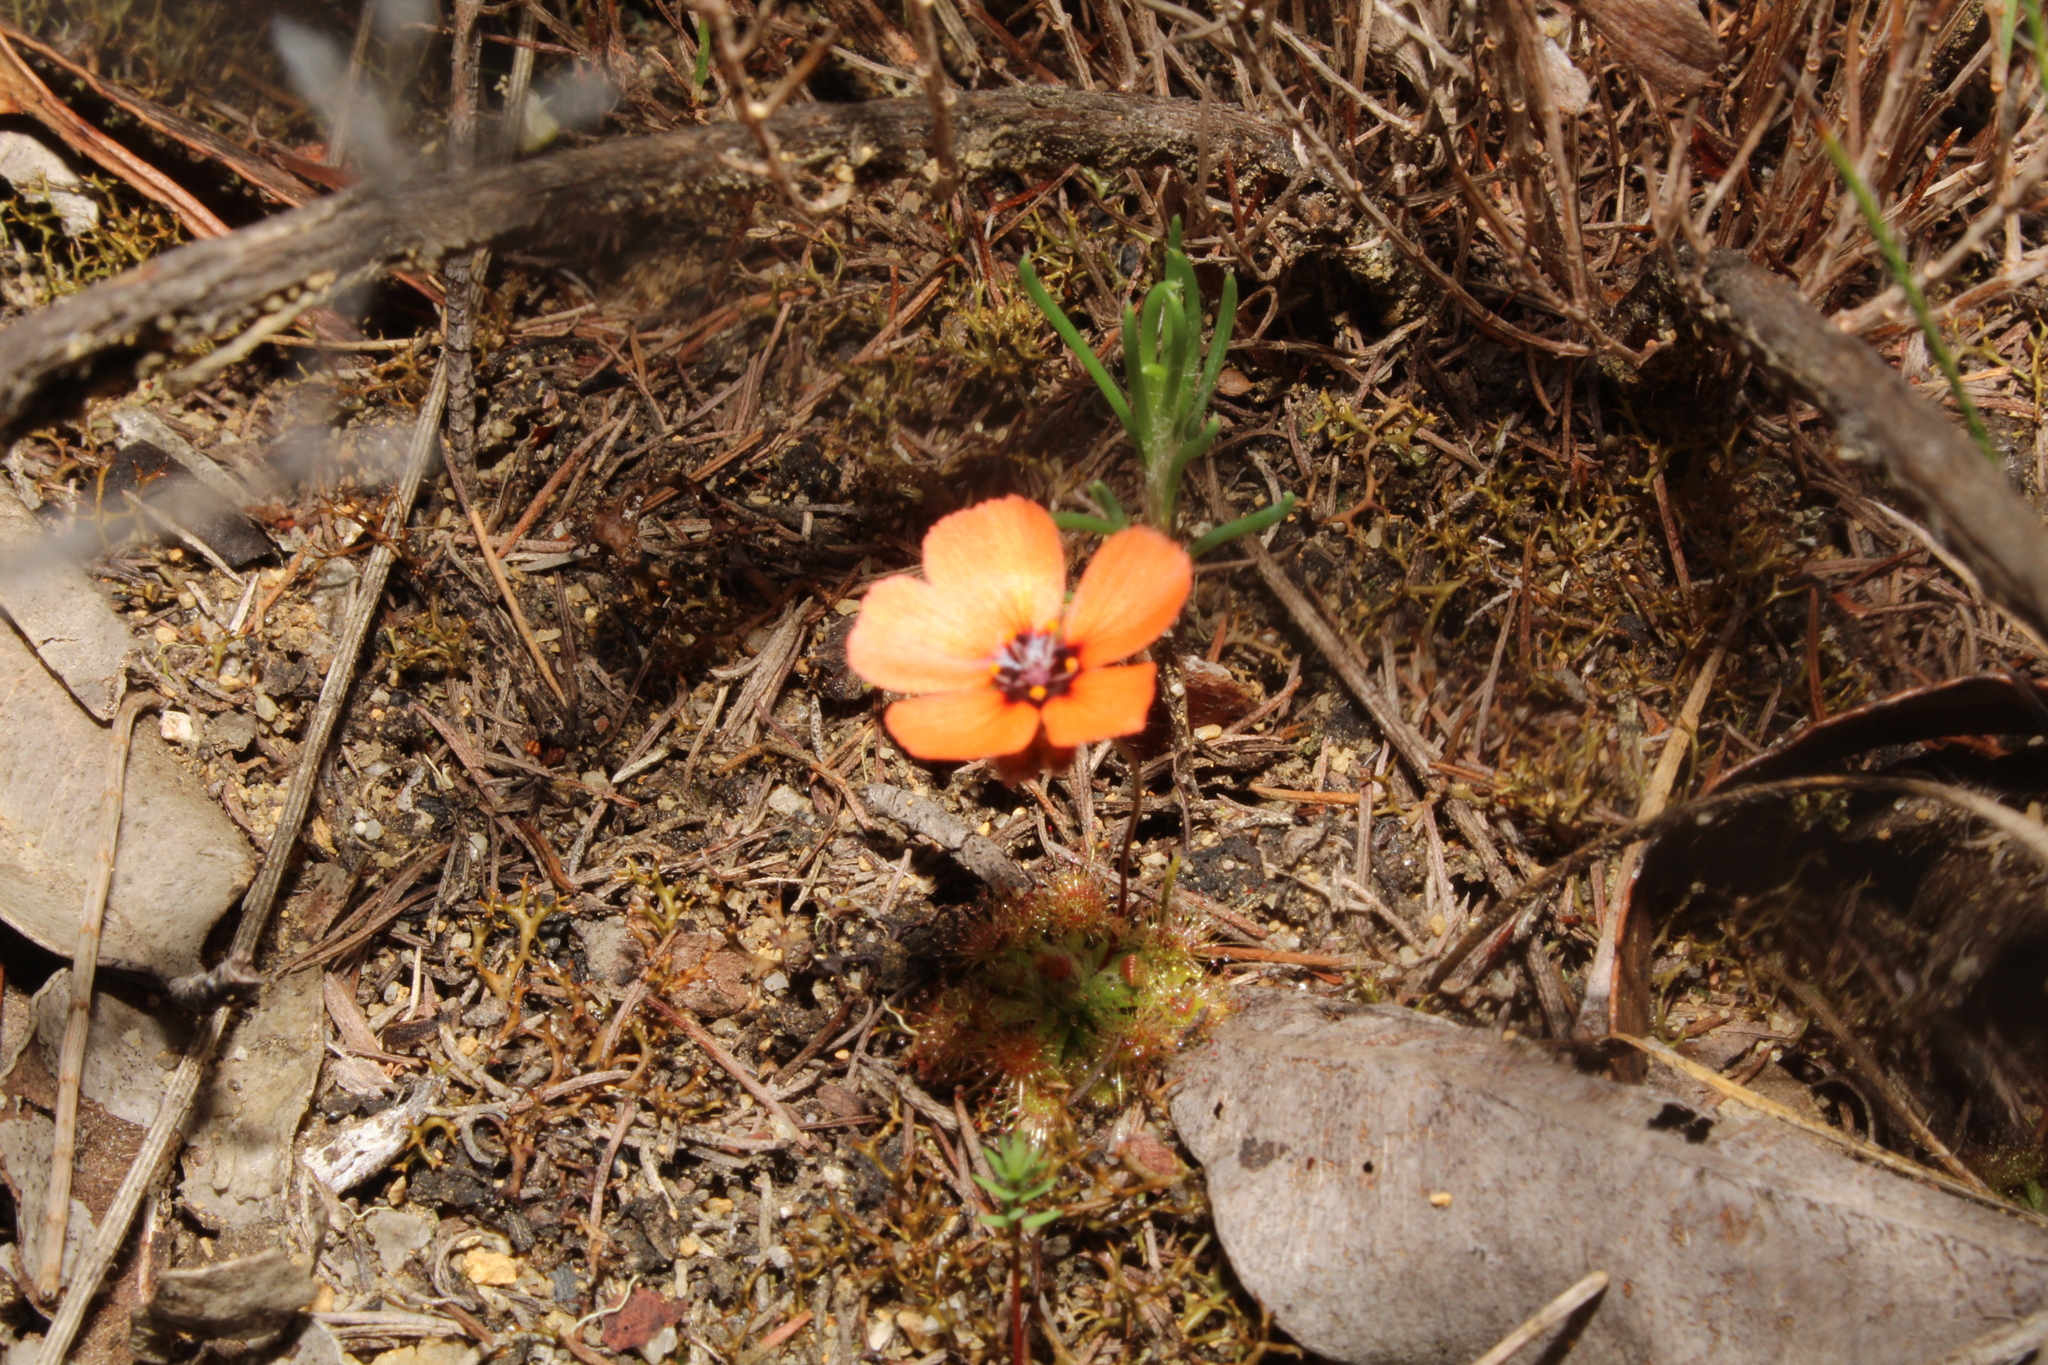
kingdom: Plantae
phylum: Tracheophyta
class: Magnoliopsida
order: Caryophyllales
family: Droseraceae
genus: Drosera
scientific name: Drosera platystigma
